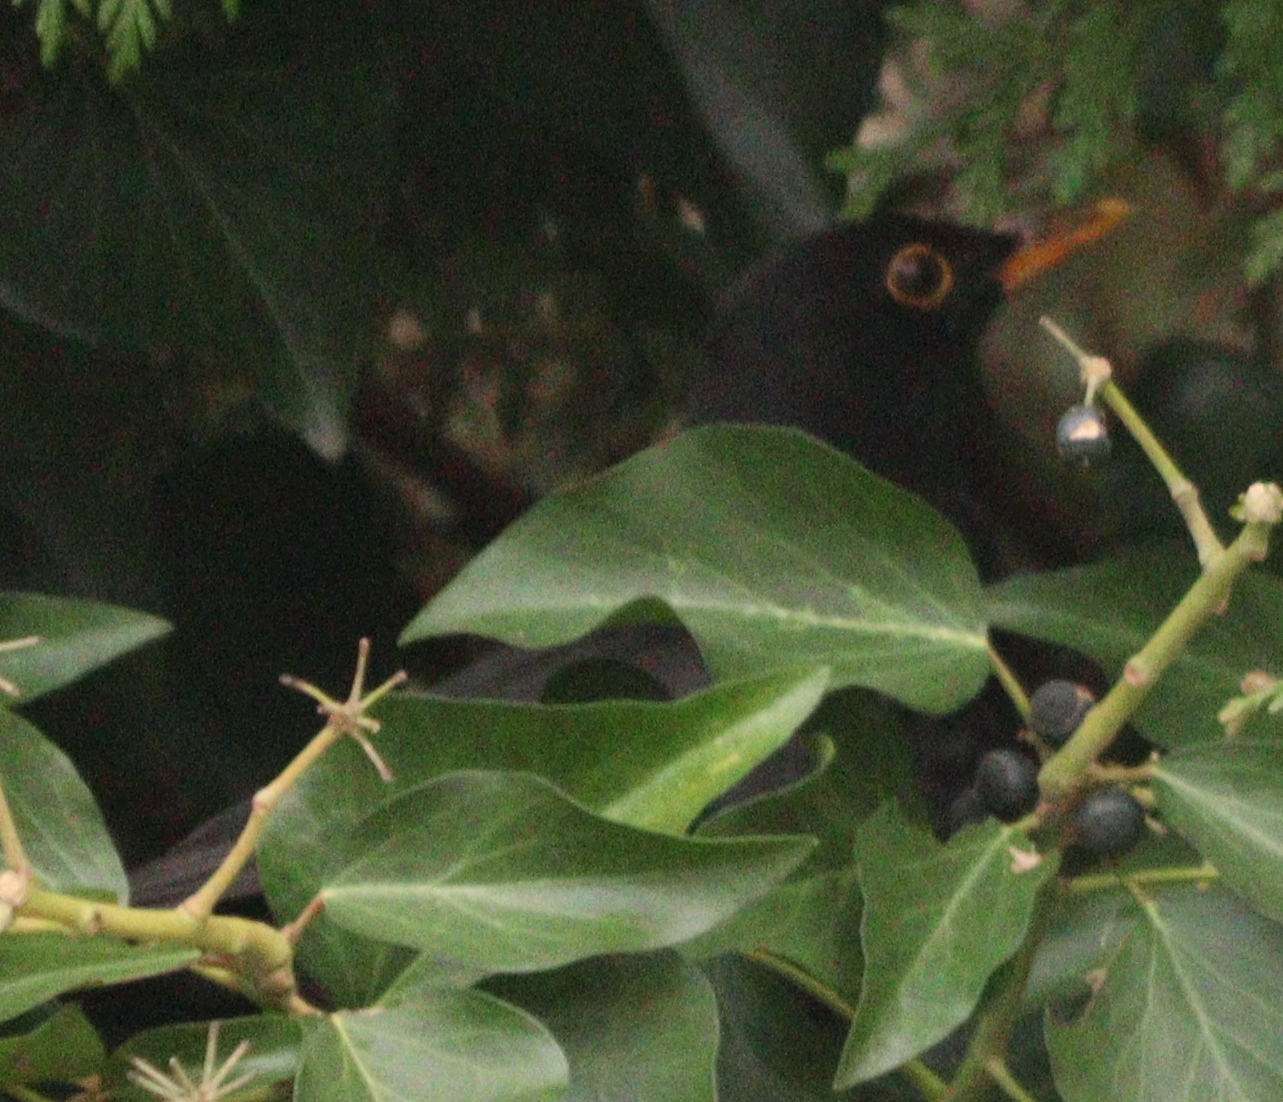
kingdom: Animalia
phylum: Chordata
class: Aves
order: Passeriformes
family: Turdidae
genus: Turdus
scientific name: Turdus merula
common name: Common blackbird
